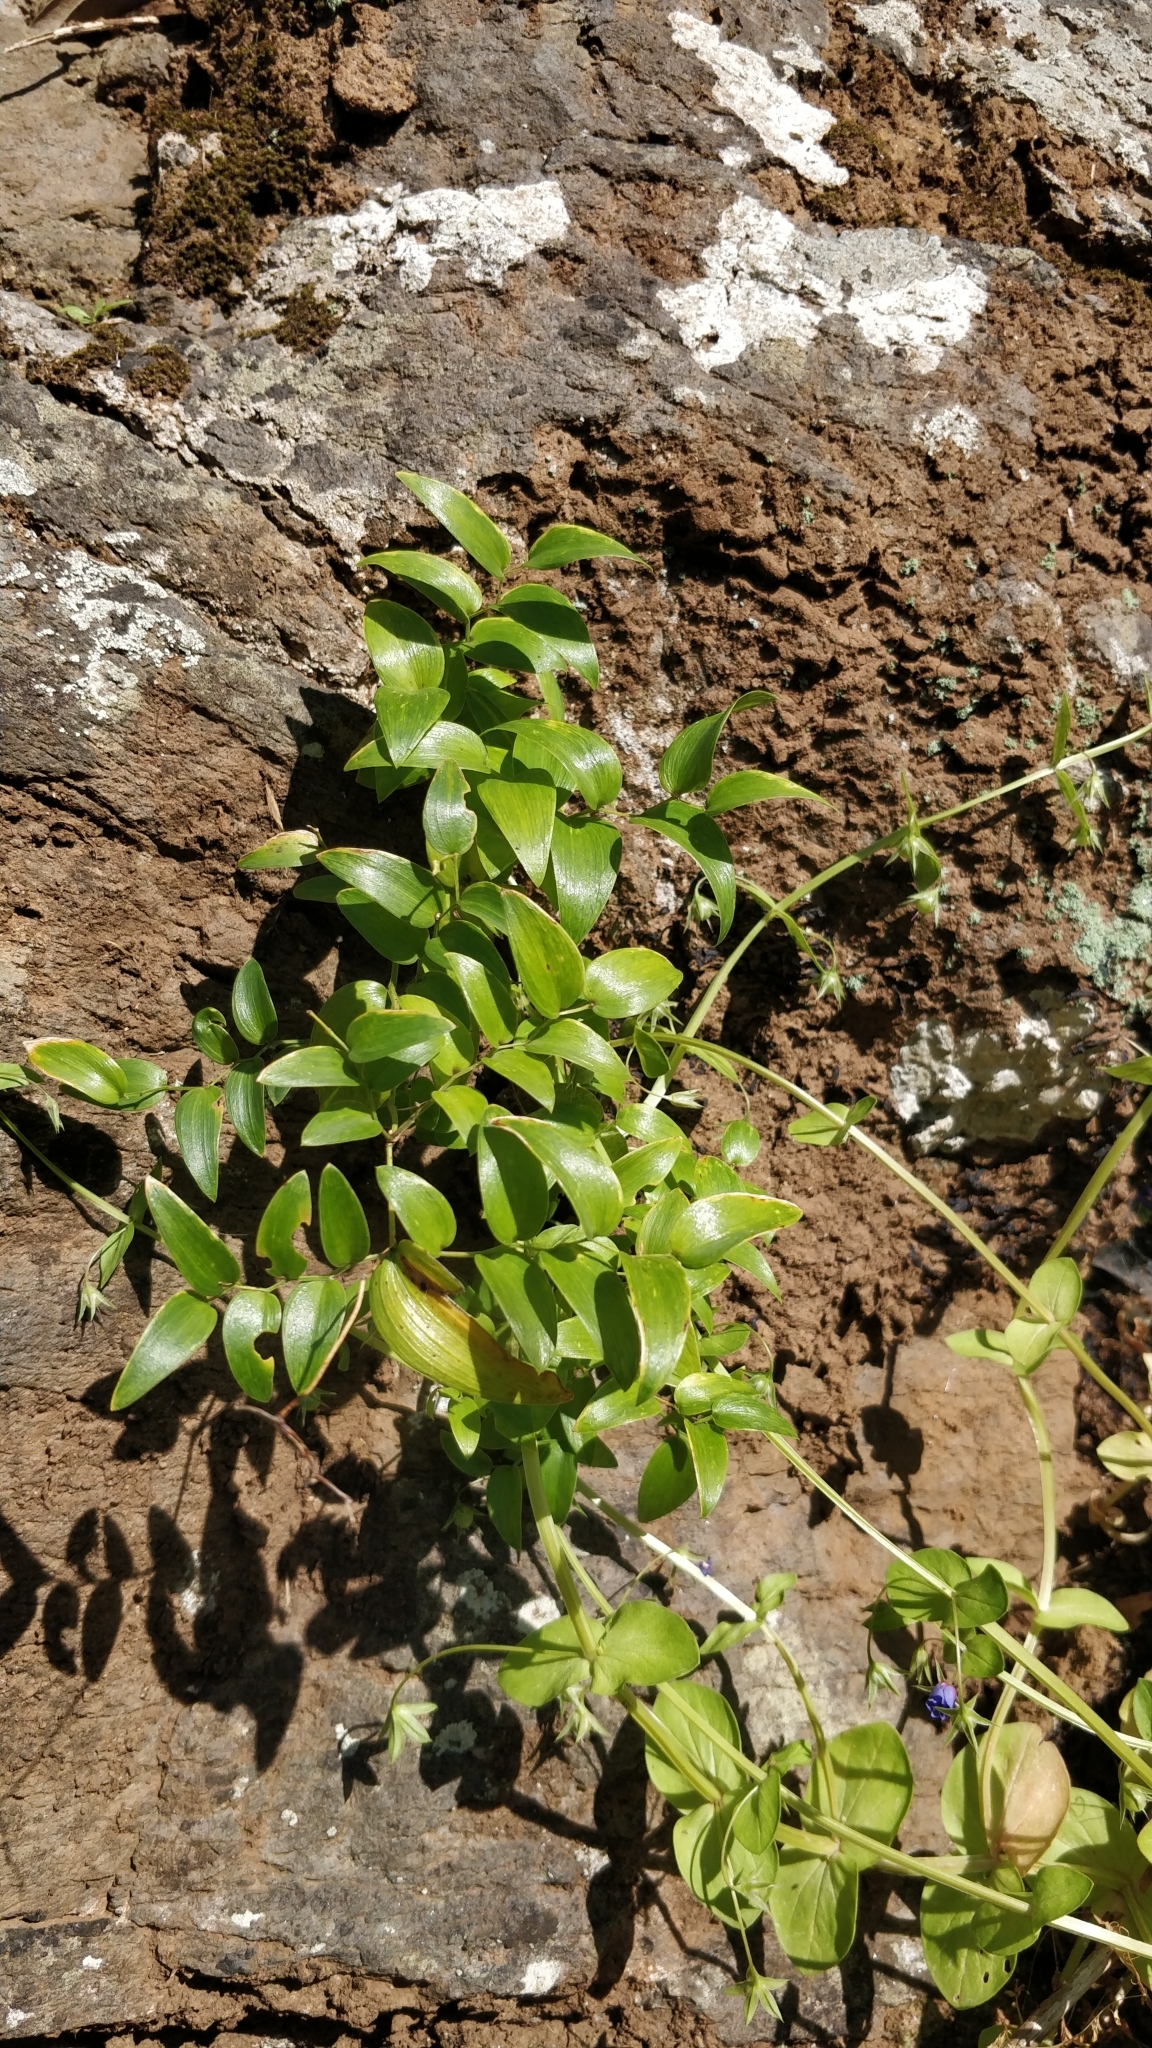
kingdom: Plantae
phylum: Tracheophyta
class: Liliopsida
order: Asparagales
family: Asparagaceae
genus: Asparagus
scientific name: Asparagus asparagoides
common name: African asparagus fern
